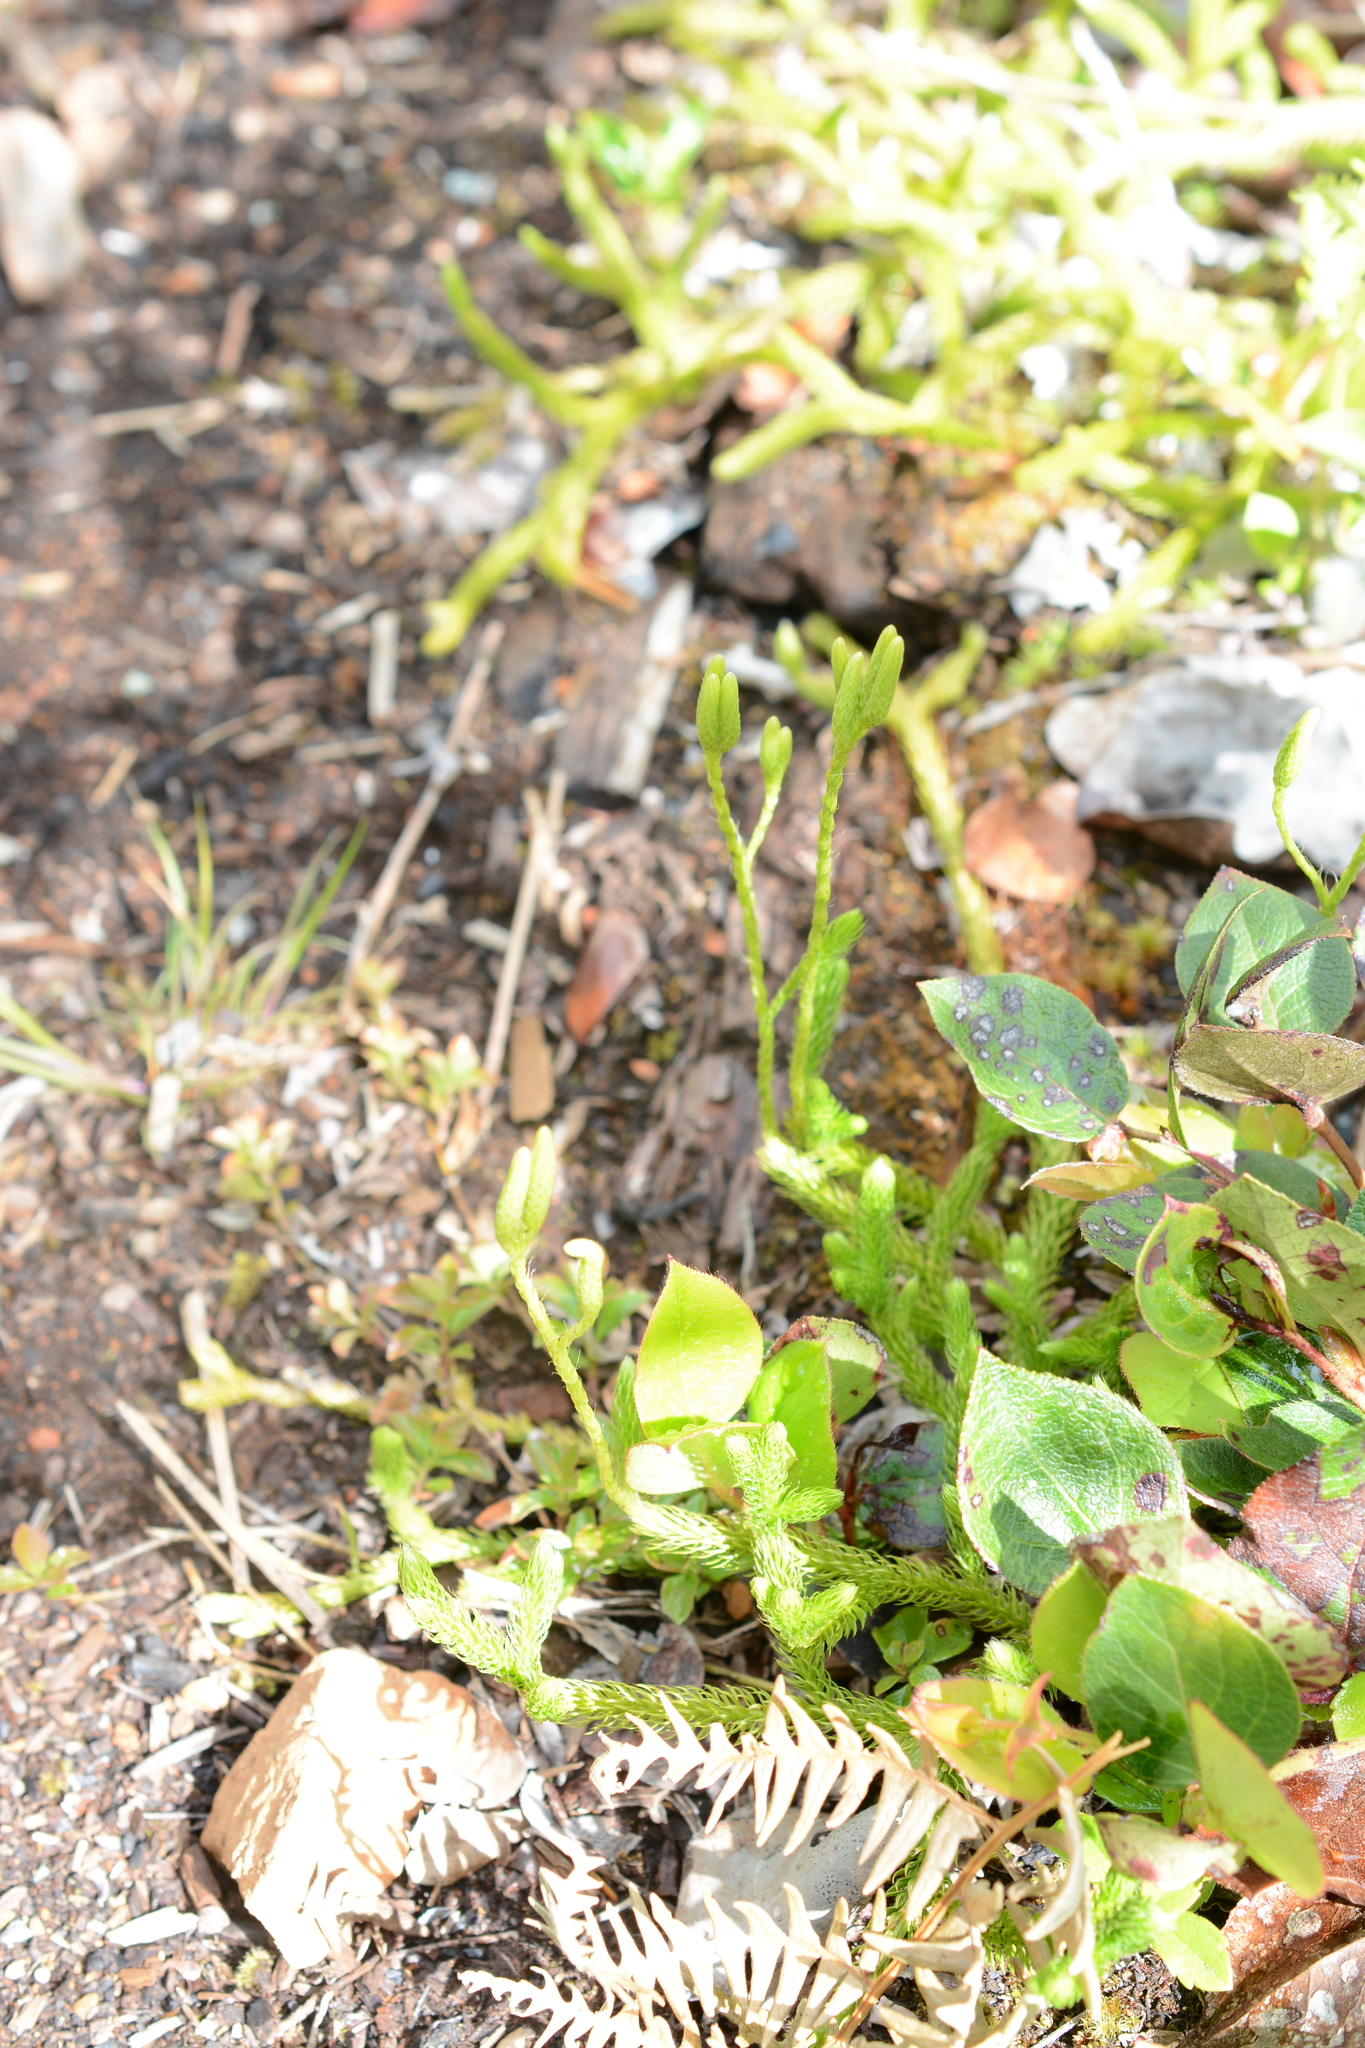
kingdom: Plantae
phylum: Tracheophyta
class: Lycopodiopsida
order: Lycopodiales
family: Lycopodiaceae
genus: Lycopodium
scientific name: Lycopodium clavatum
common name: Stag's-horn clubmoss
